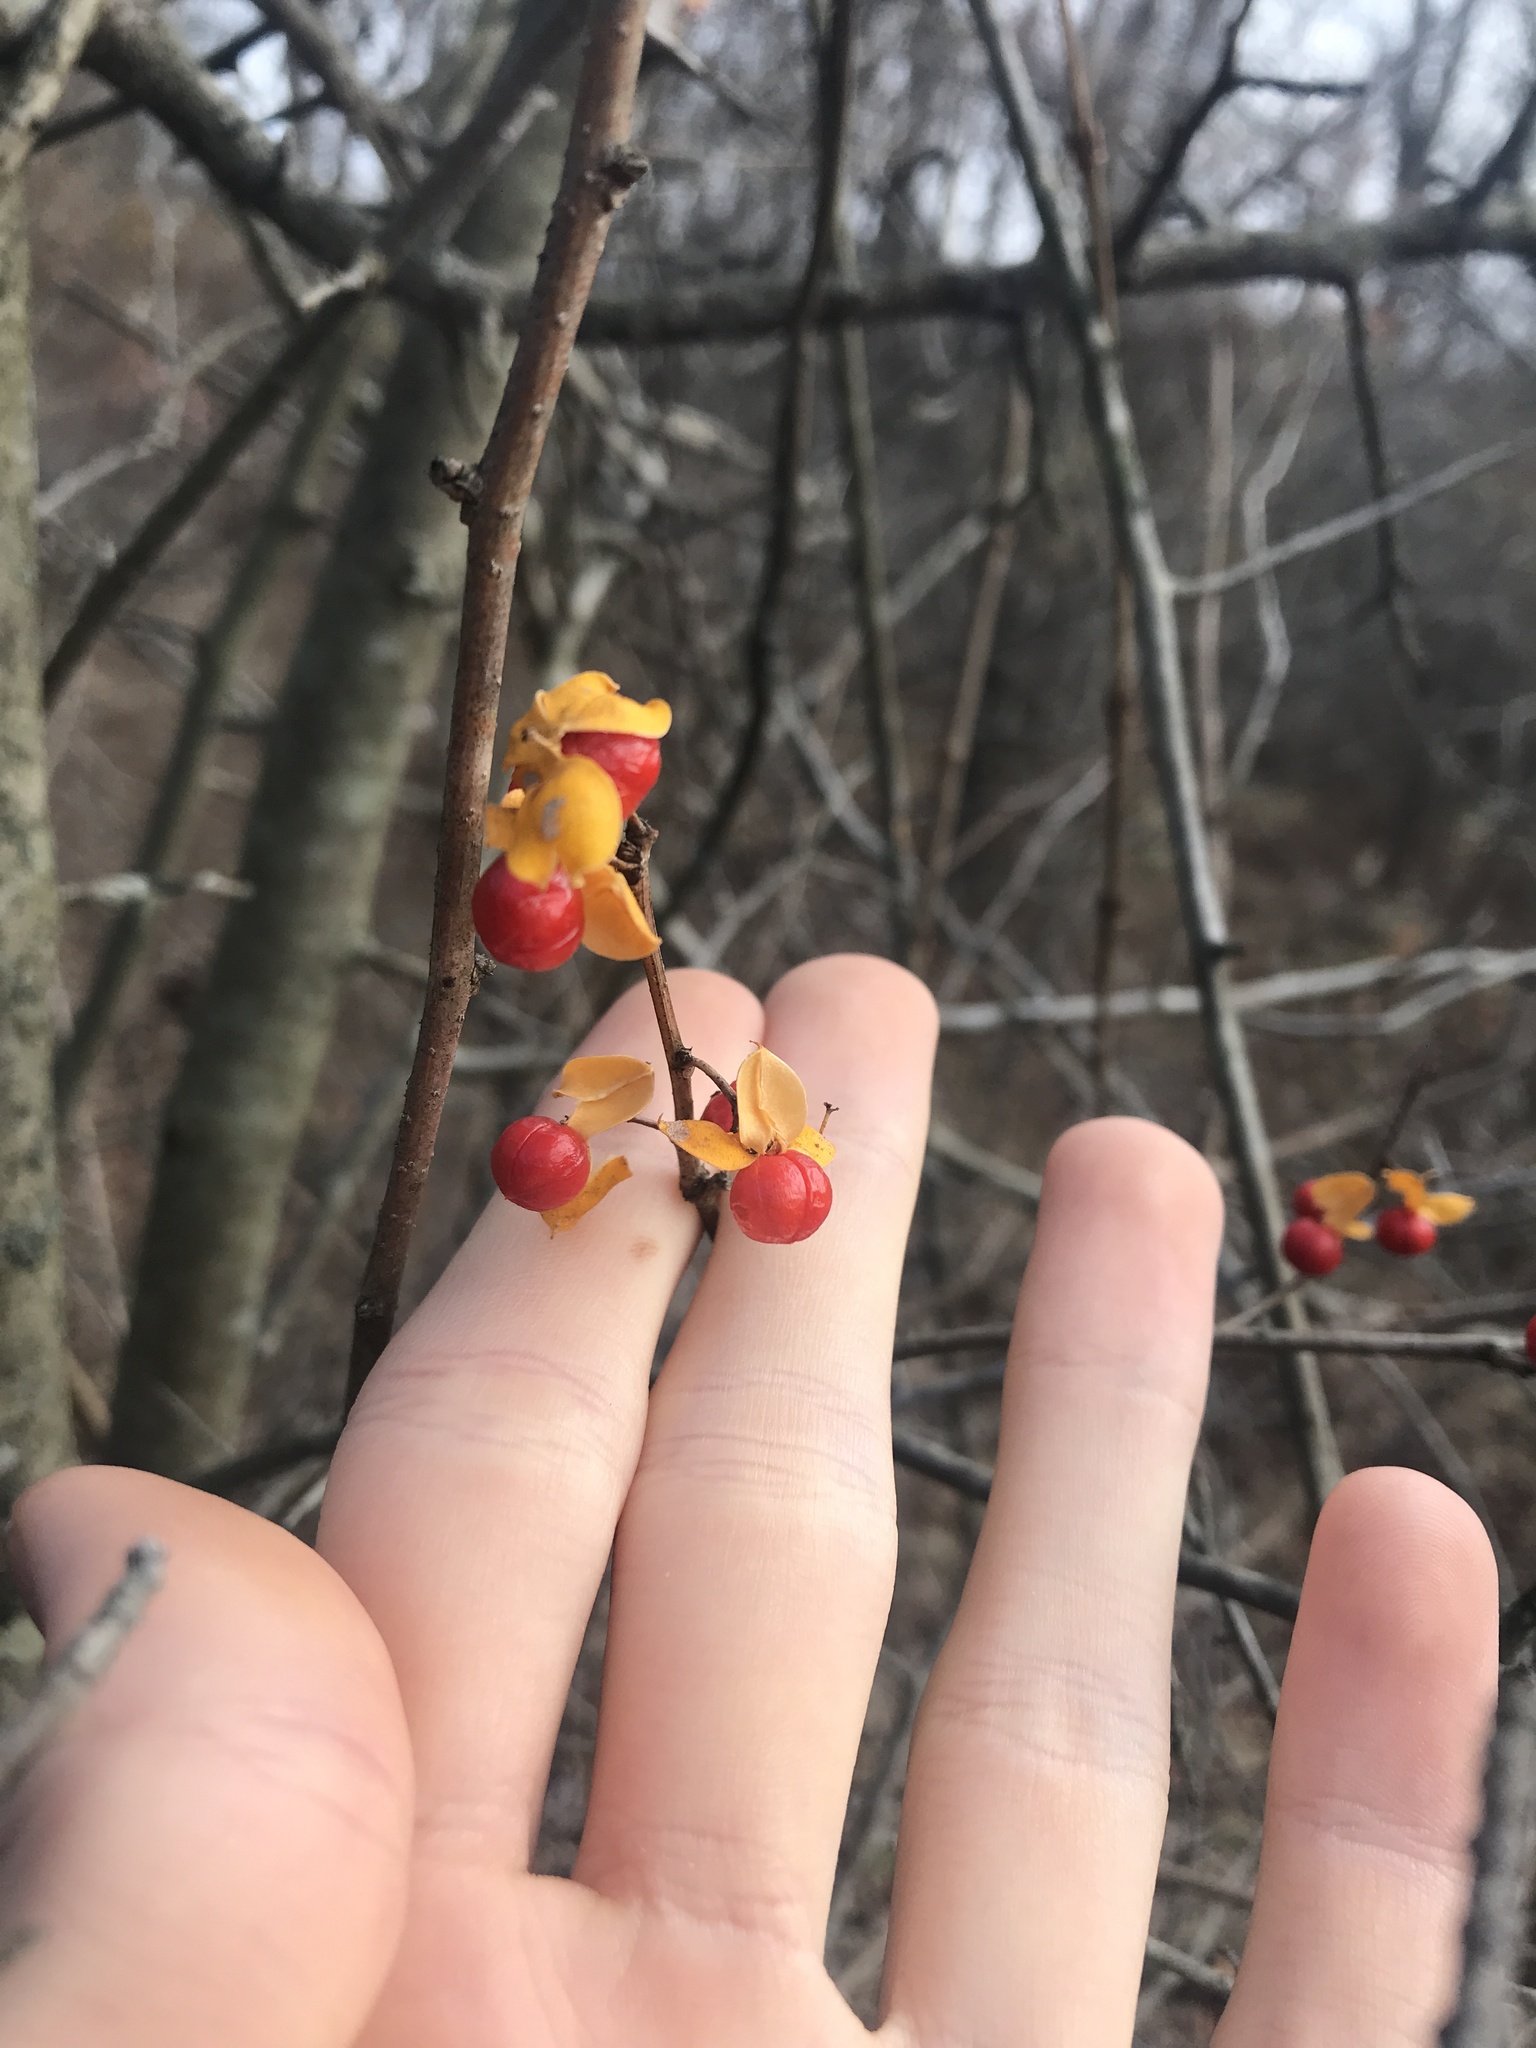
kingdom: Plantae
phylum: Tracheophyta
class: Magnoliopsida
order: Celastrales
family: Celastraceae
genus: Celastrus
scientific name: Celastrus orbiculatus
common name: Oriental bittersweet
